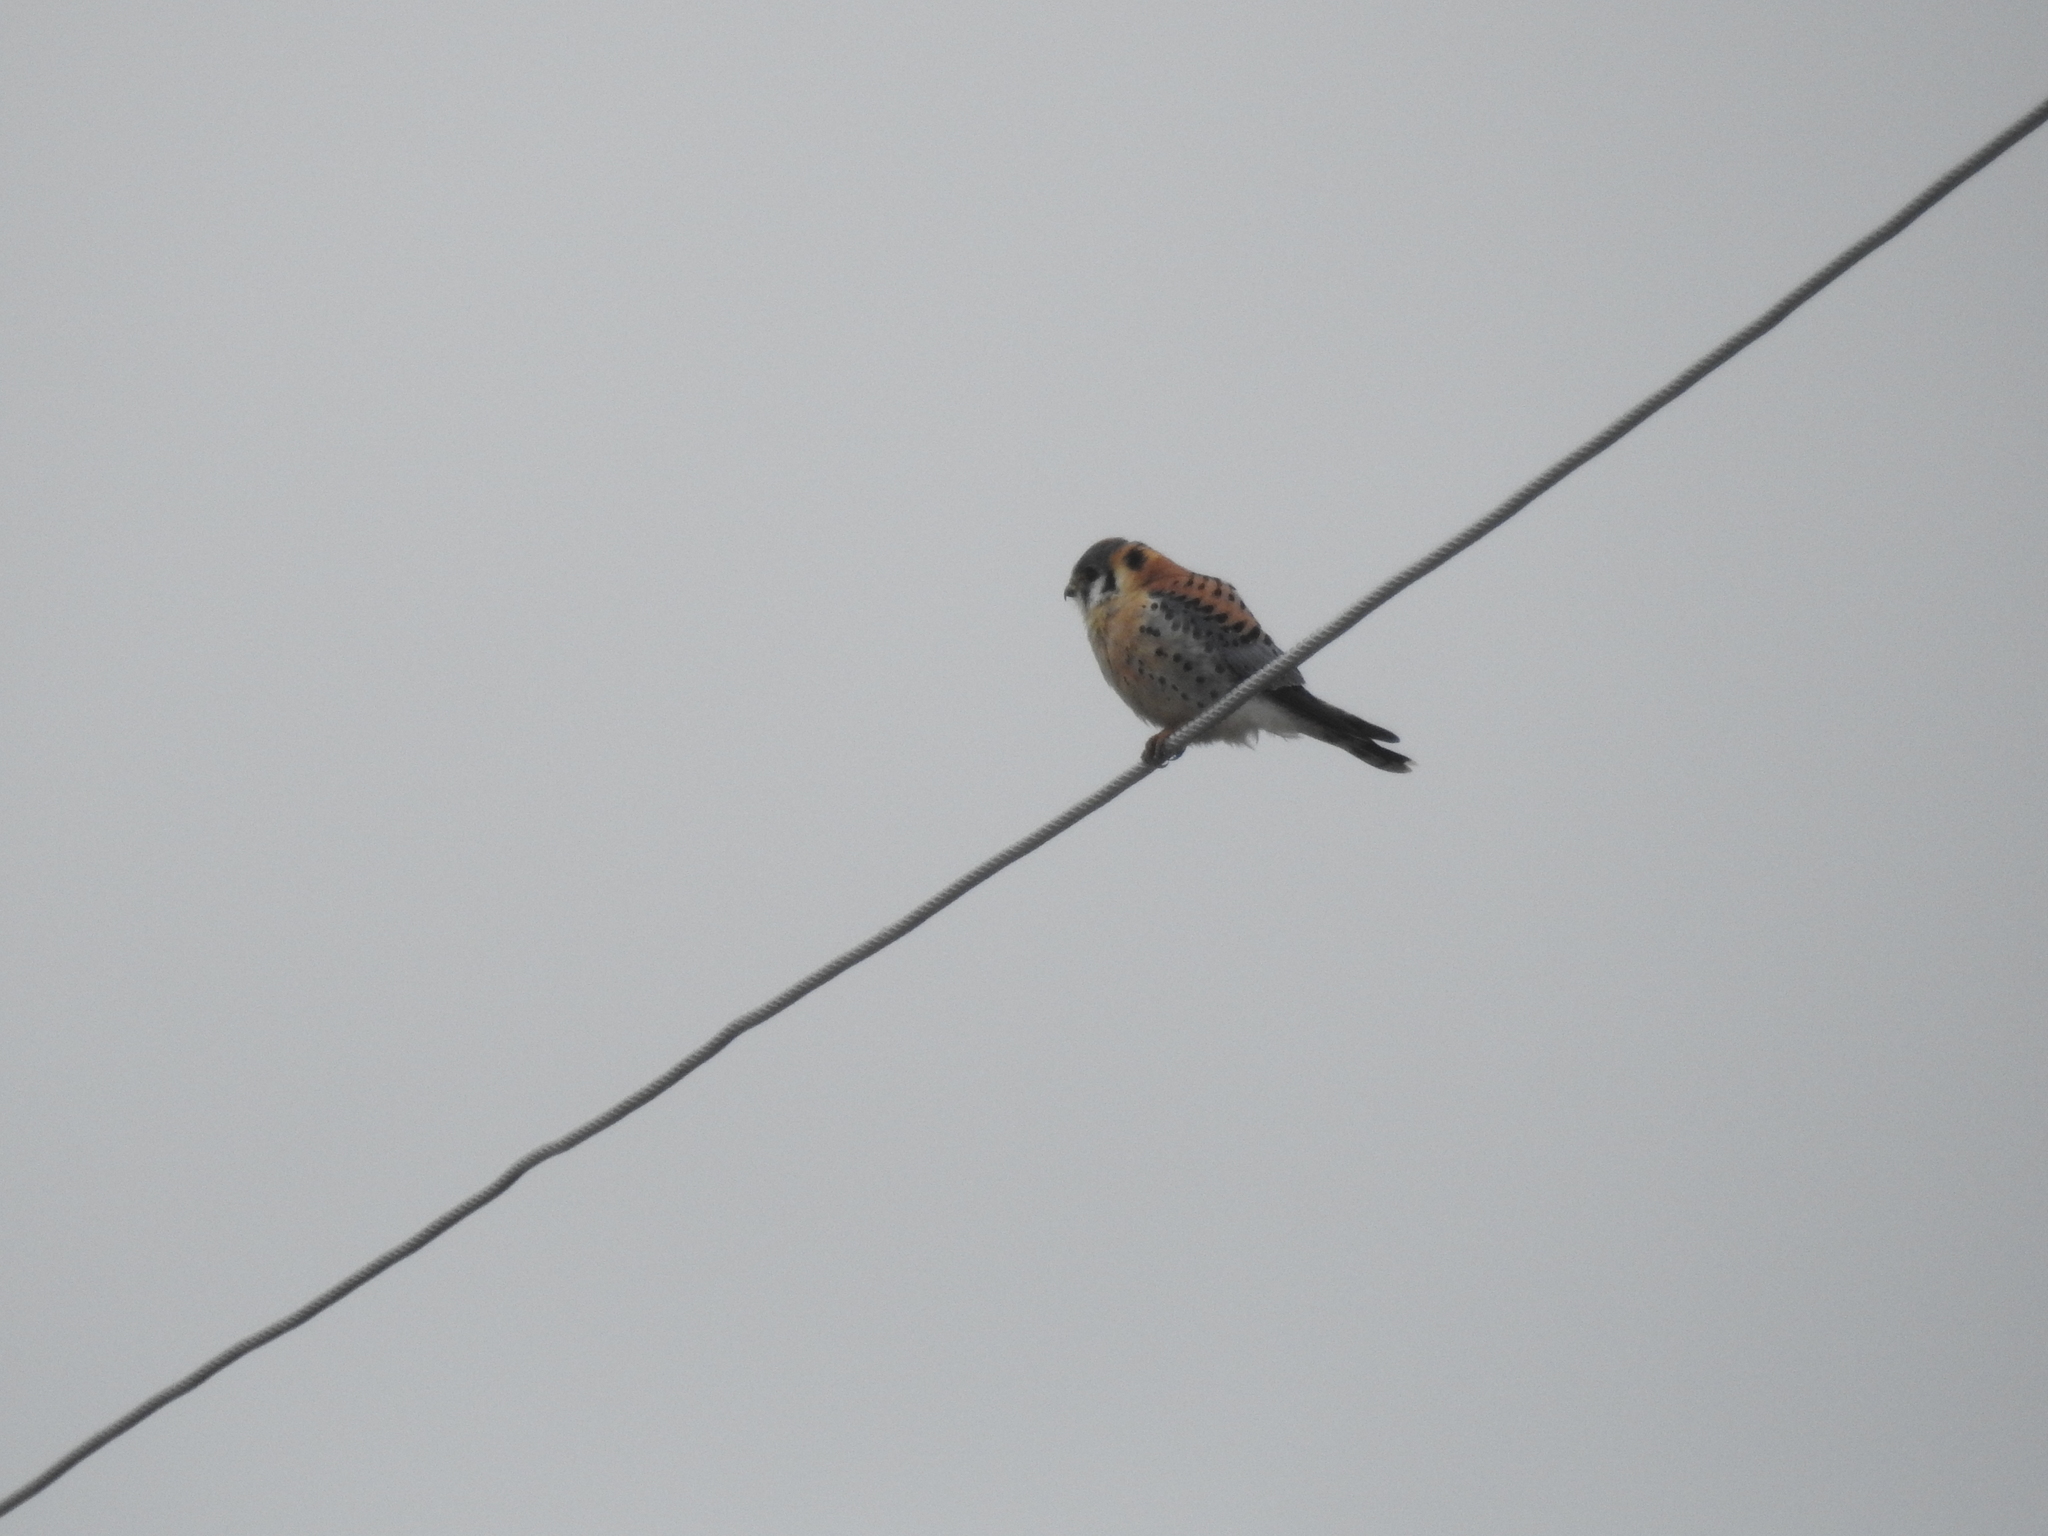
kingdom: Animalia
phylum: Chordata
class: Aves
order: Falconiformes
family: Falconidae
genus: Falco
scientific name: Falco sparverius
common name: American kestrel
